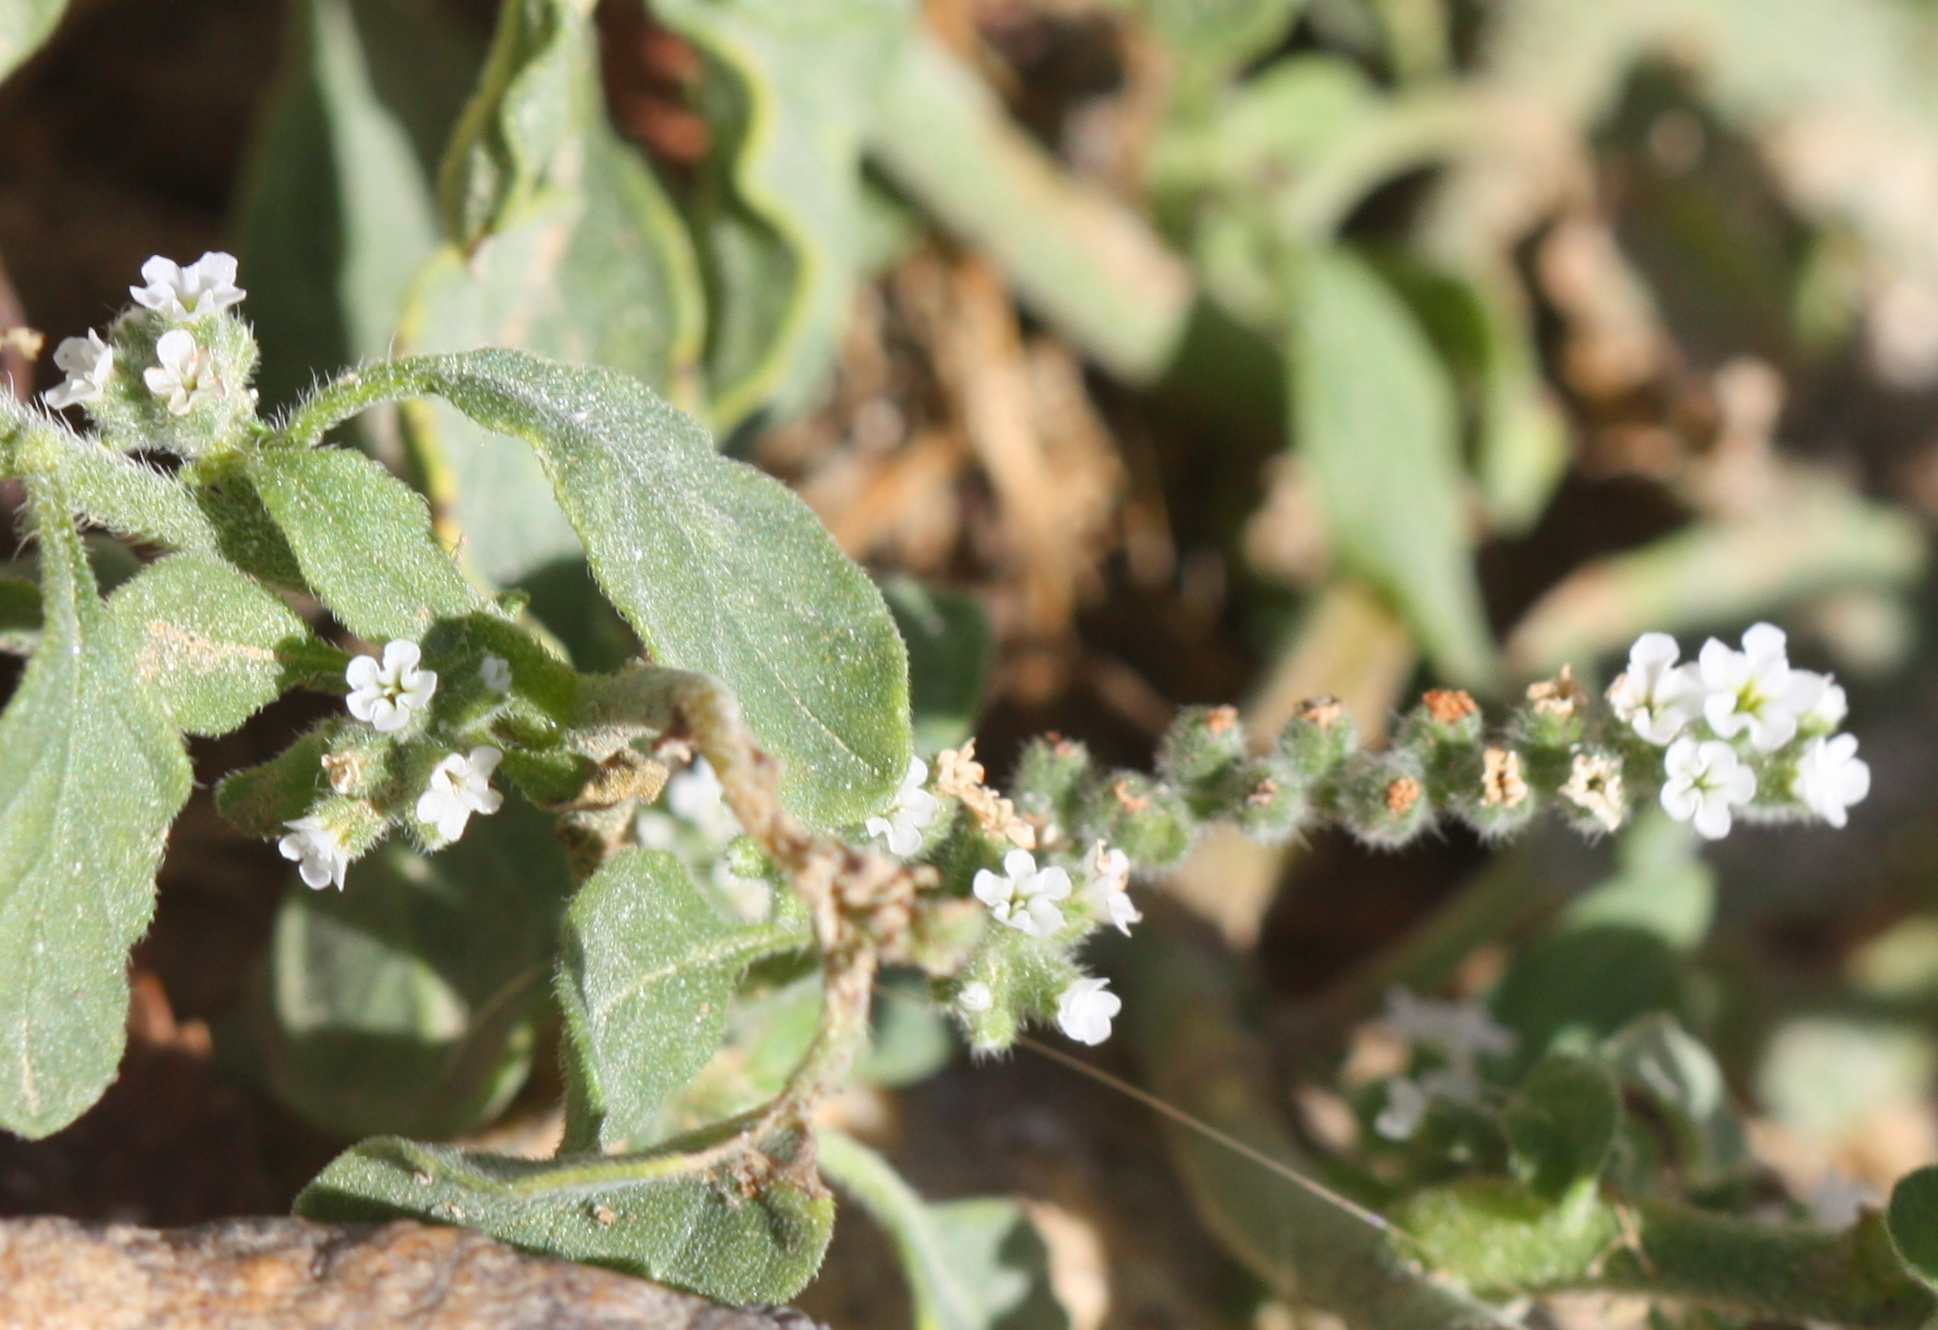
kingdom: Plantae
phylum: Tracheophyta
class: Magnoliopsida
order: Boraginales
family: Heliotropiaceae
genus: Heliotropium
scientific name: Heliotropium europaeum
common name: European heliotrope
